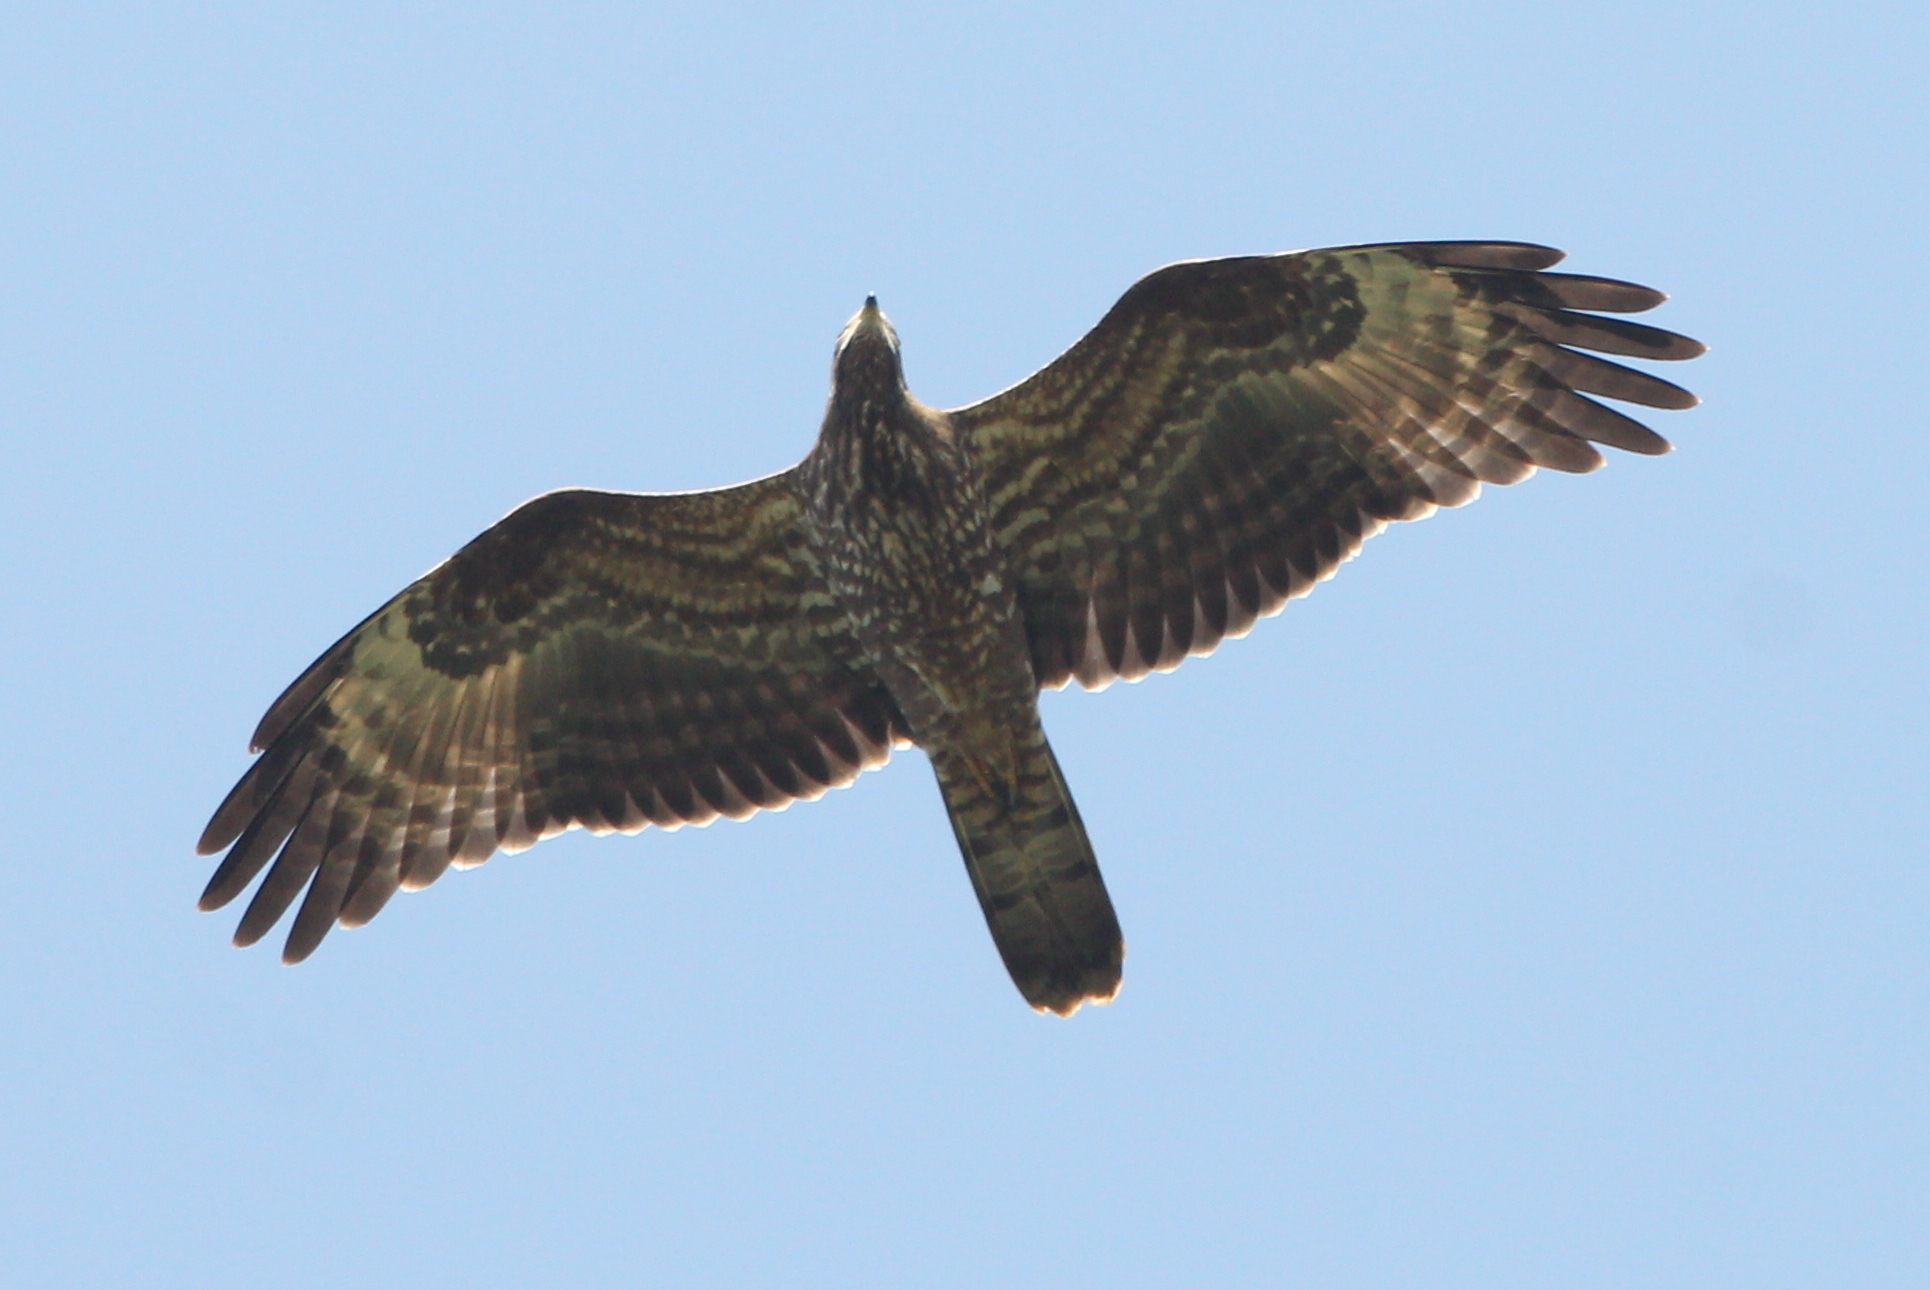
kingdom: Animalia
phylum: Chordata
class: Aves
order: Accipitriformes
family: Accipitridae
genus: Pernis
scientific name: Pernis apivorus
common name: European honey buzzard
